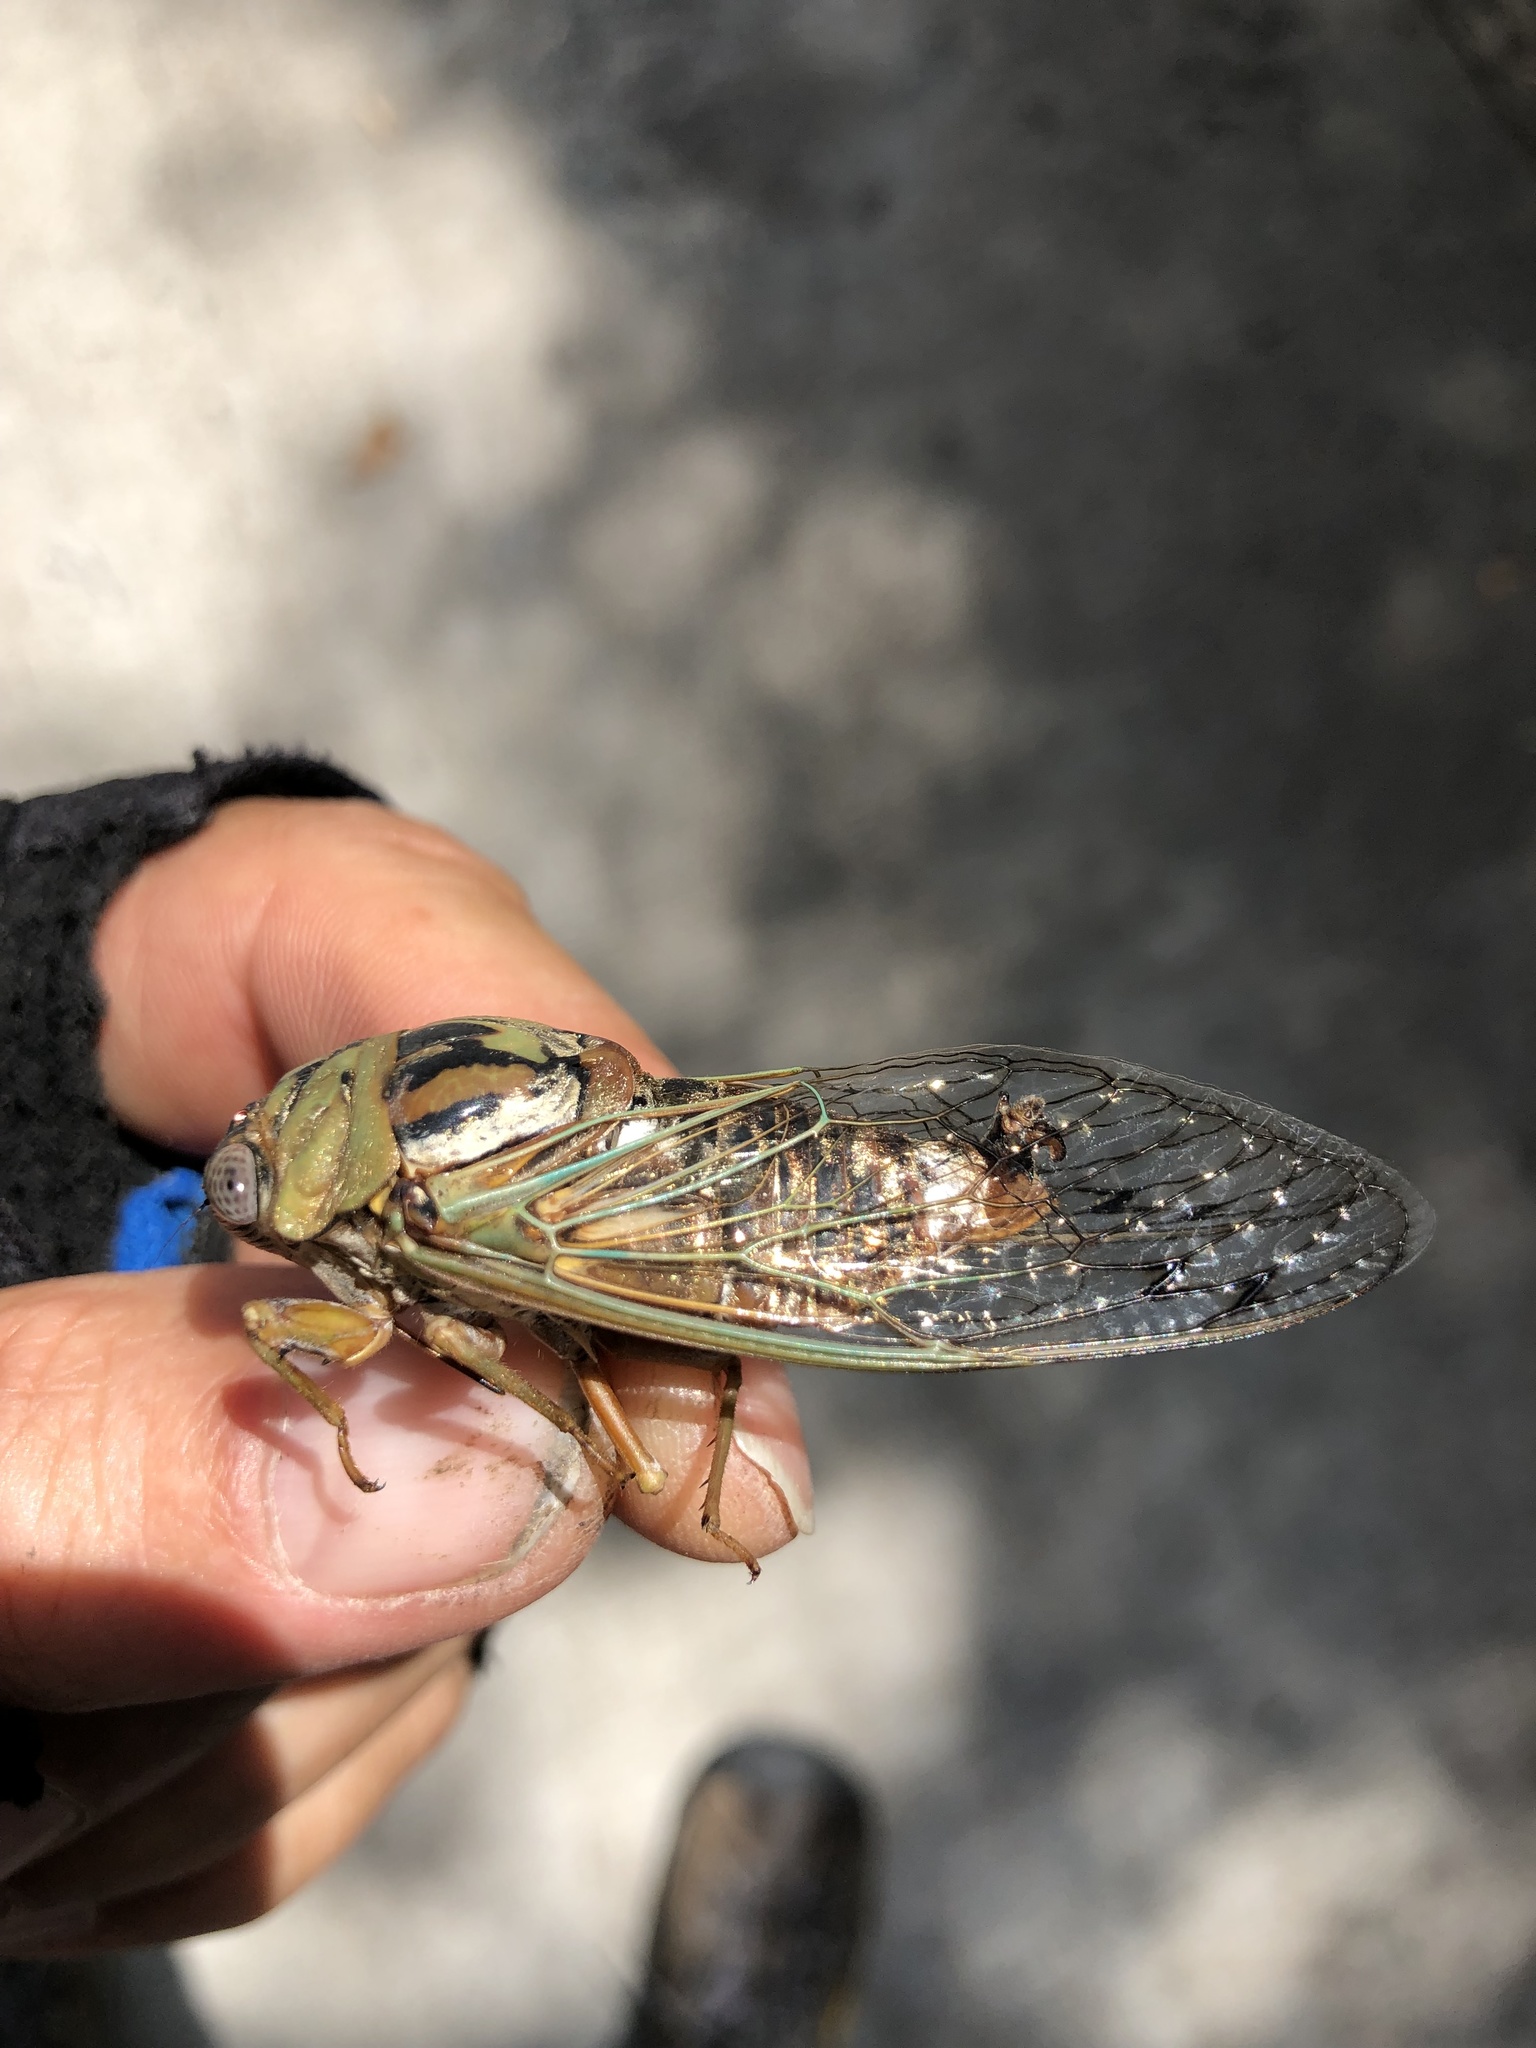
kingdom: Animalia
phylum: Arthropoda
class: Insecta
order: Hemiptera
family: Cicadidae
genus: Megatibicen
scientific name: Megatibicen resh
